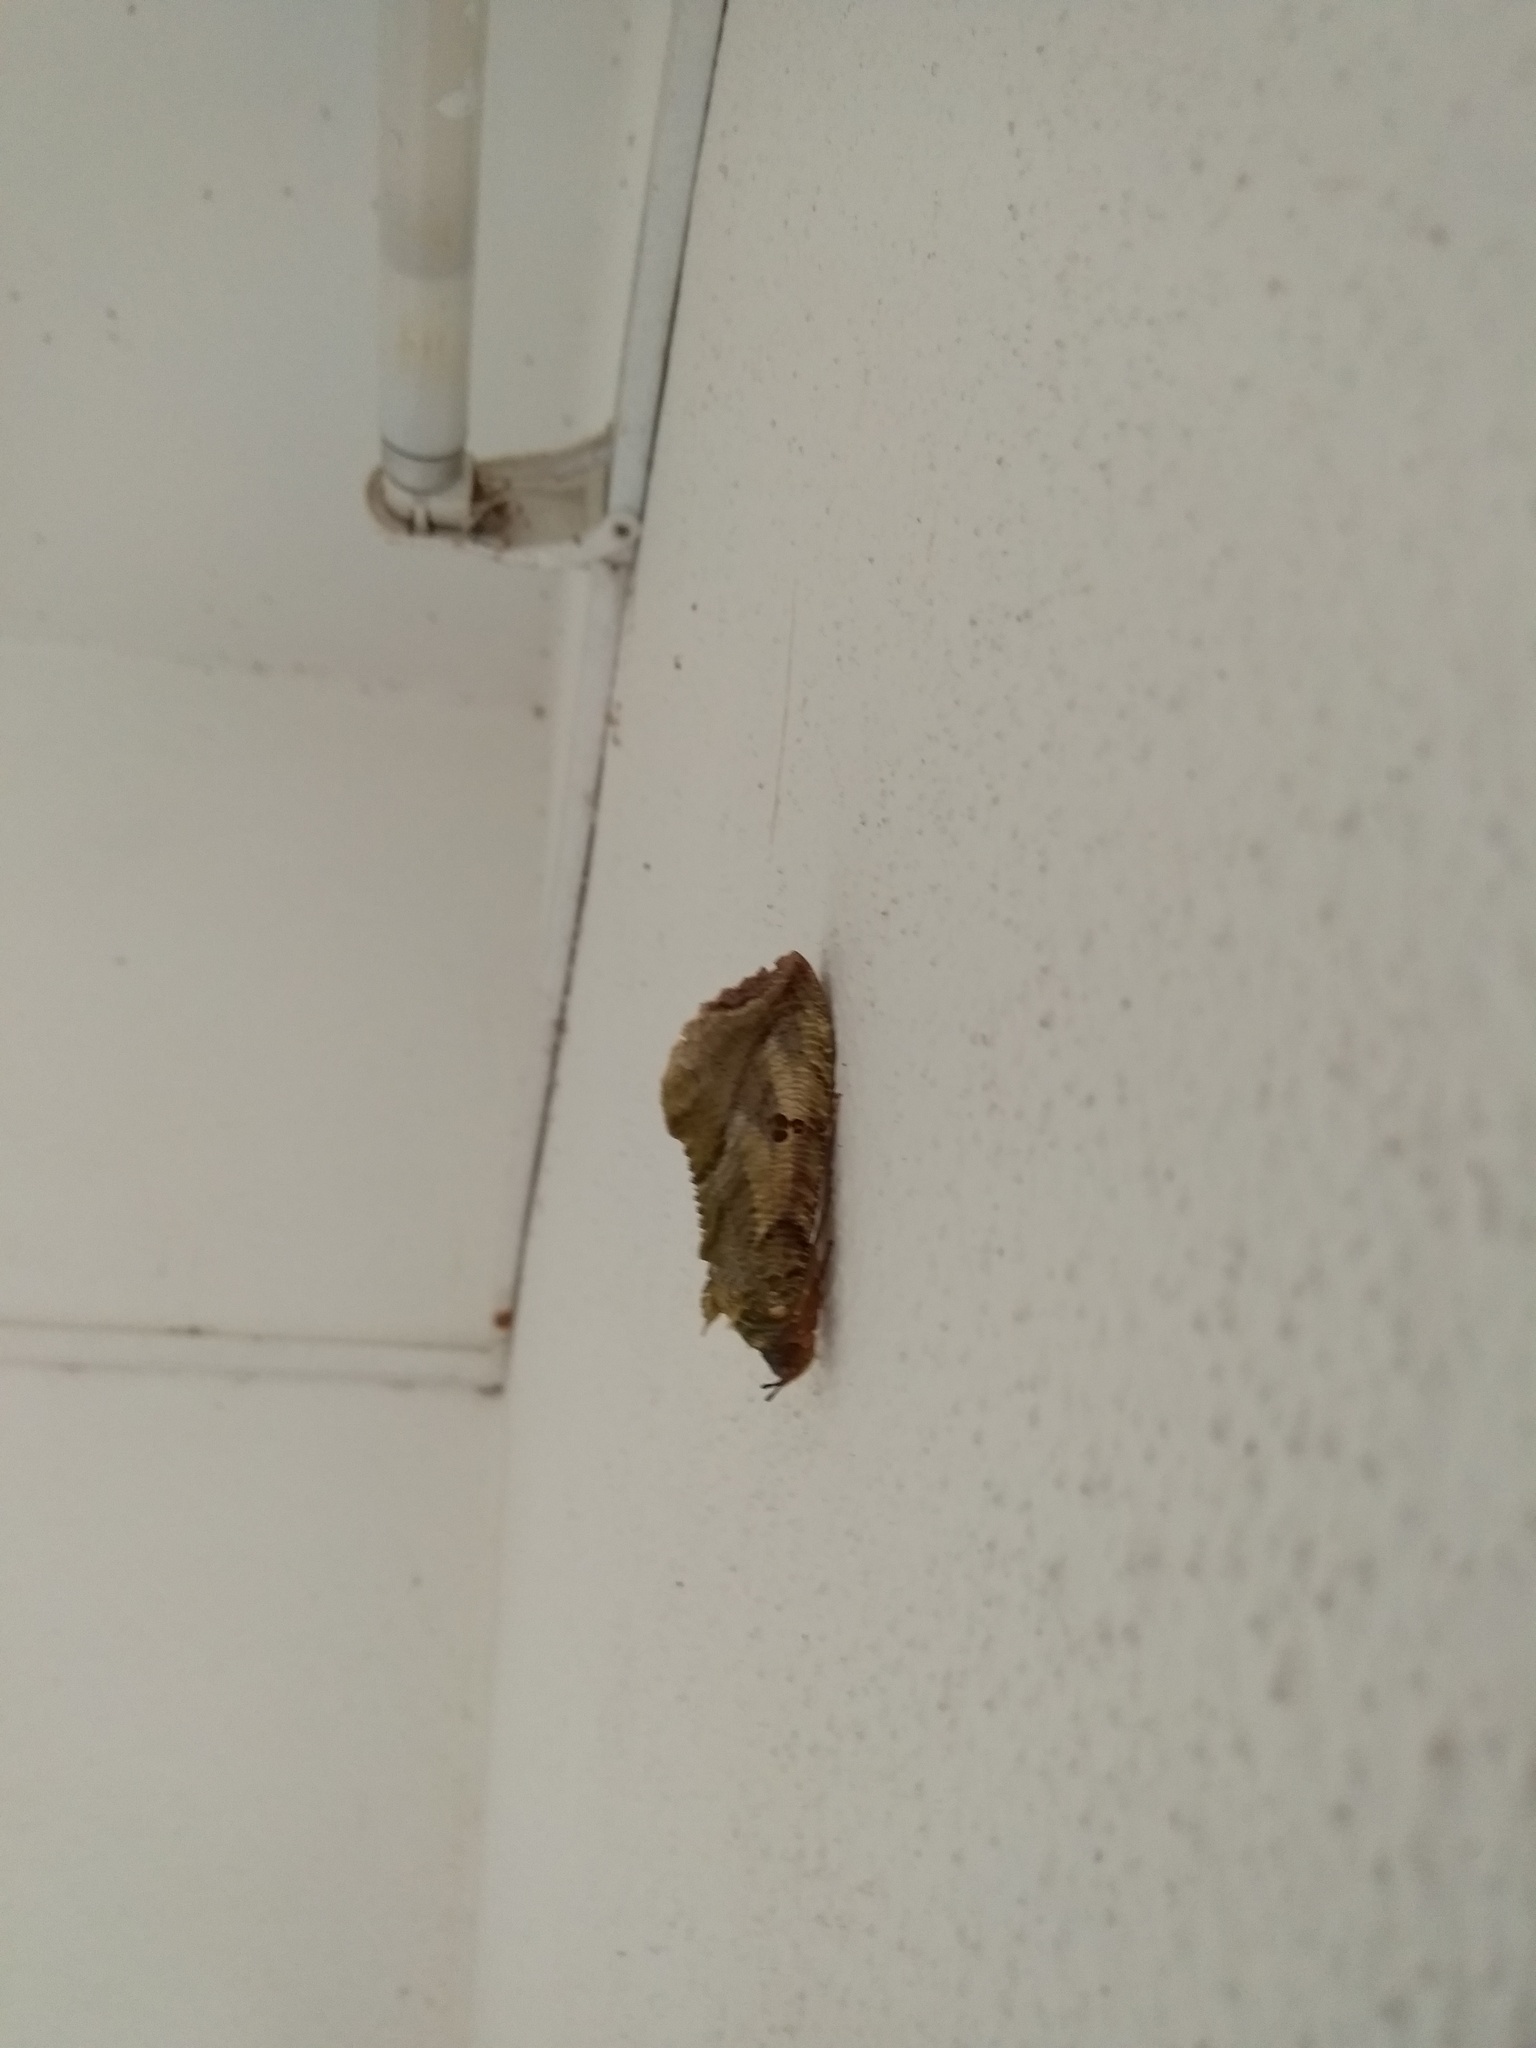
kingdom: Animalia
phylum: Arthropoda
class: Insecta
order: Lepidoptera
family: Erebidae
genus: Eudocima
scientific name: Eudocima materna
